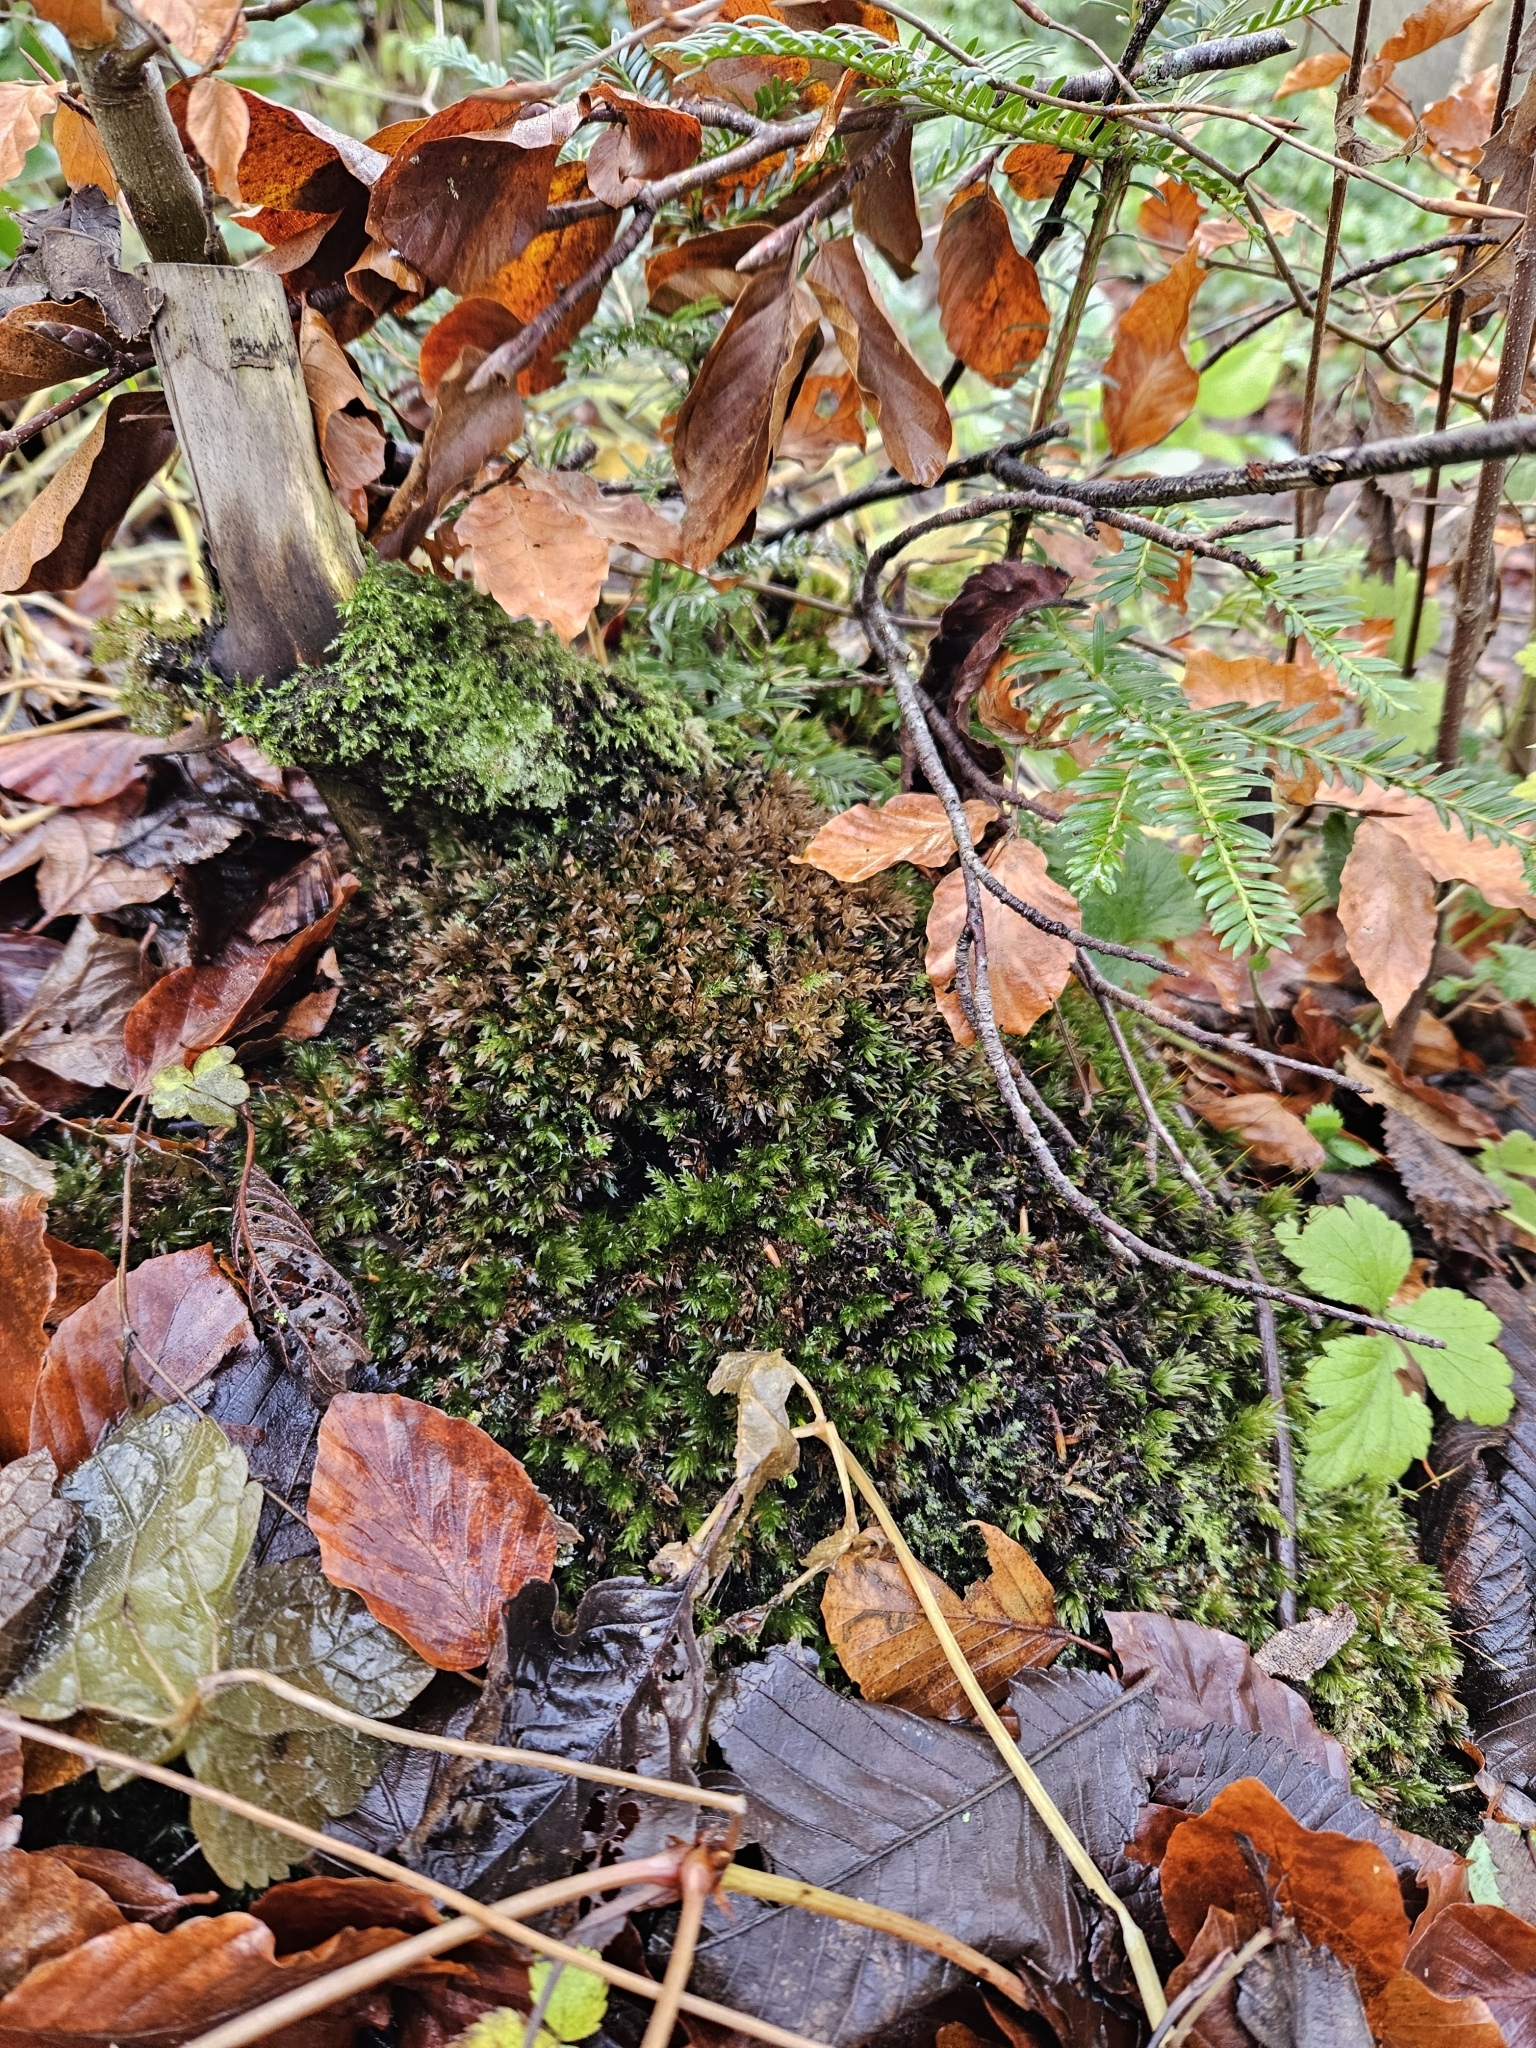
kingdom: Plantae
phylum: Bryophyta
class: Bryopsida
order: Bryales
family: Mniaceae
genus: Mnium
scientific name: Mnium hornum
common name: Swan's-neck leafy moss
